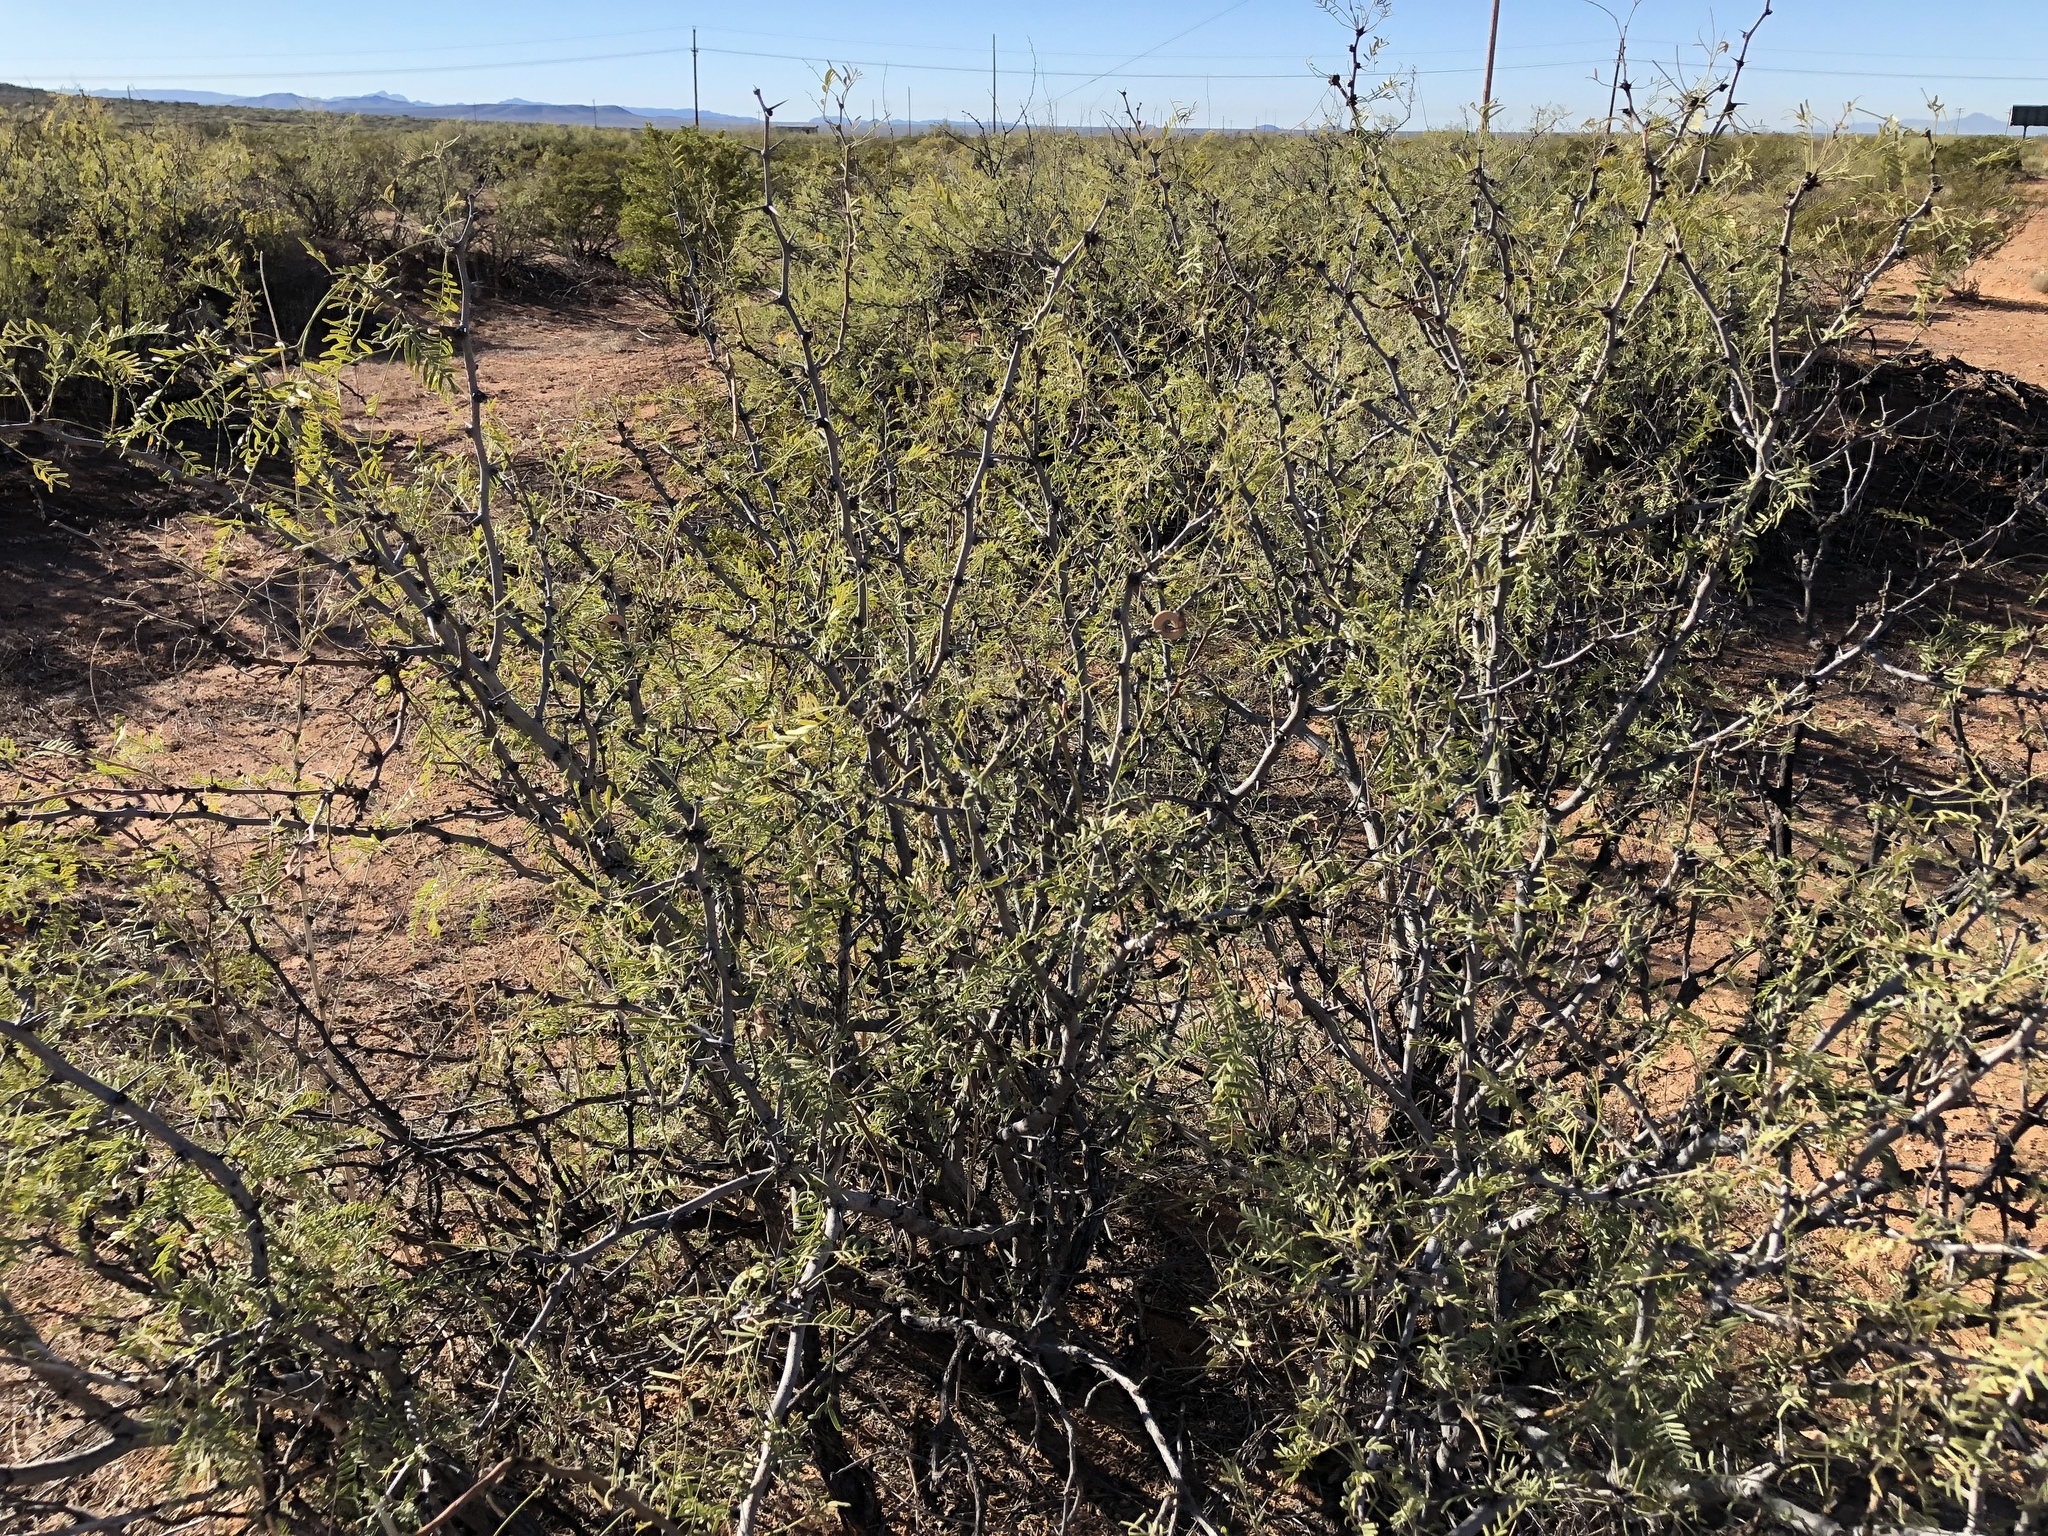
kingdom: Plantae
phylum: Tracheophyta
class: Magnoliopsida
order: Fabales
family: Fabaceae
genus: Prosopis
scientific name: Prosopis glandulosa
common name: Honey mesquite
